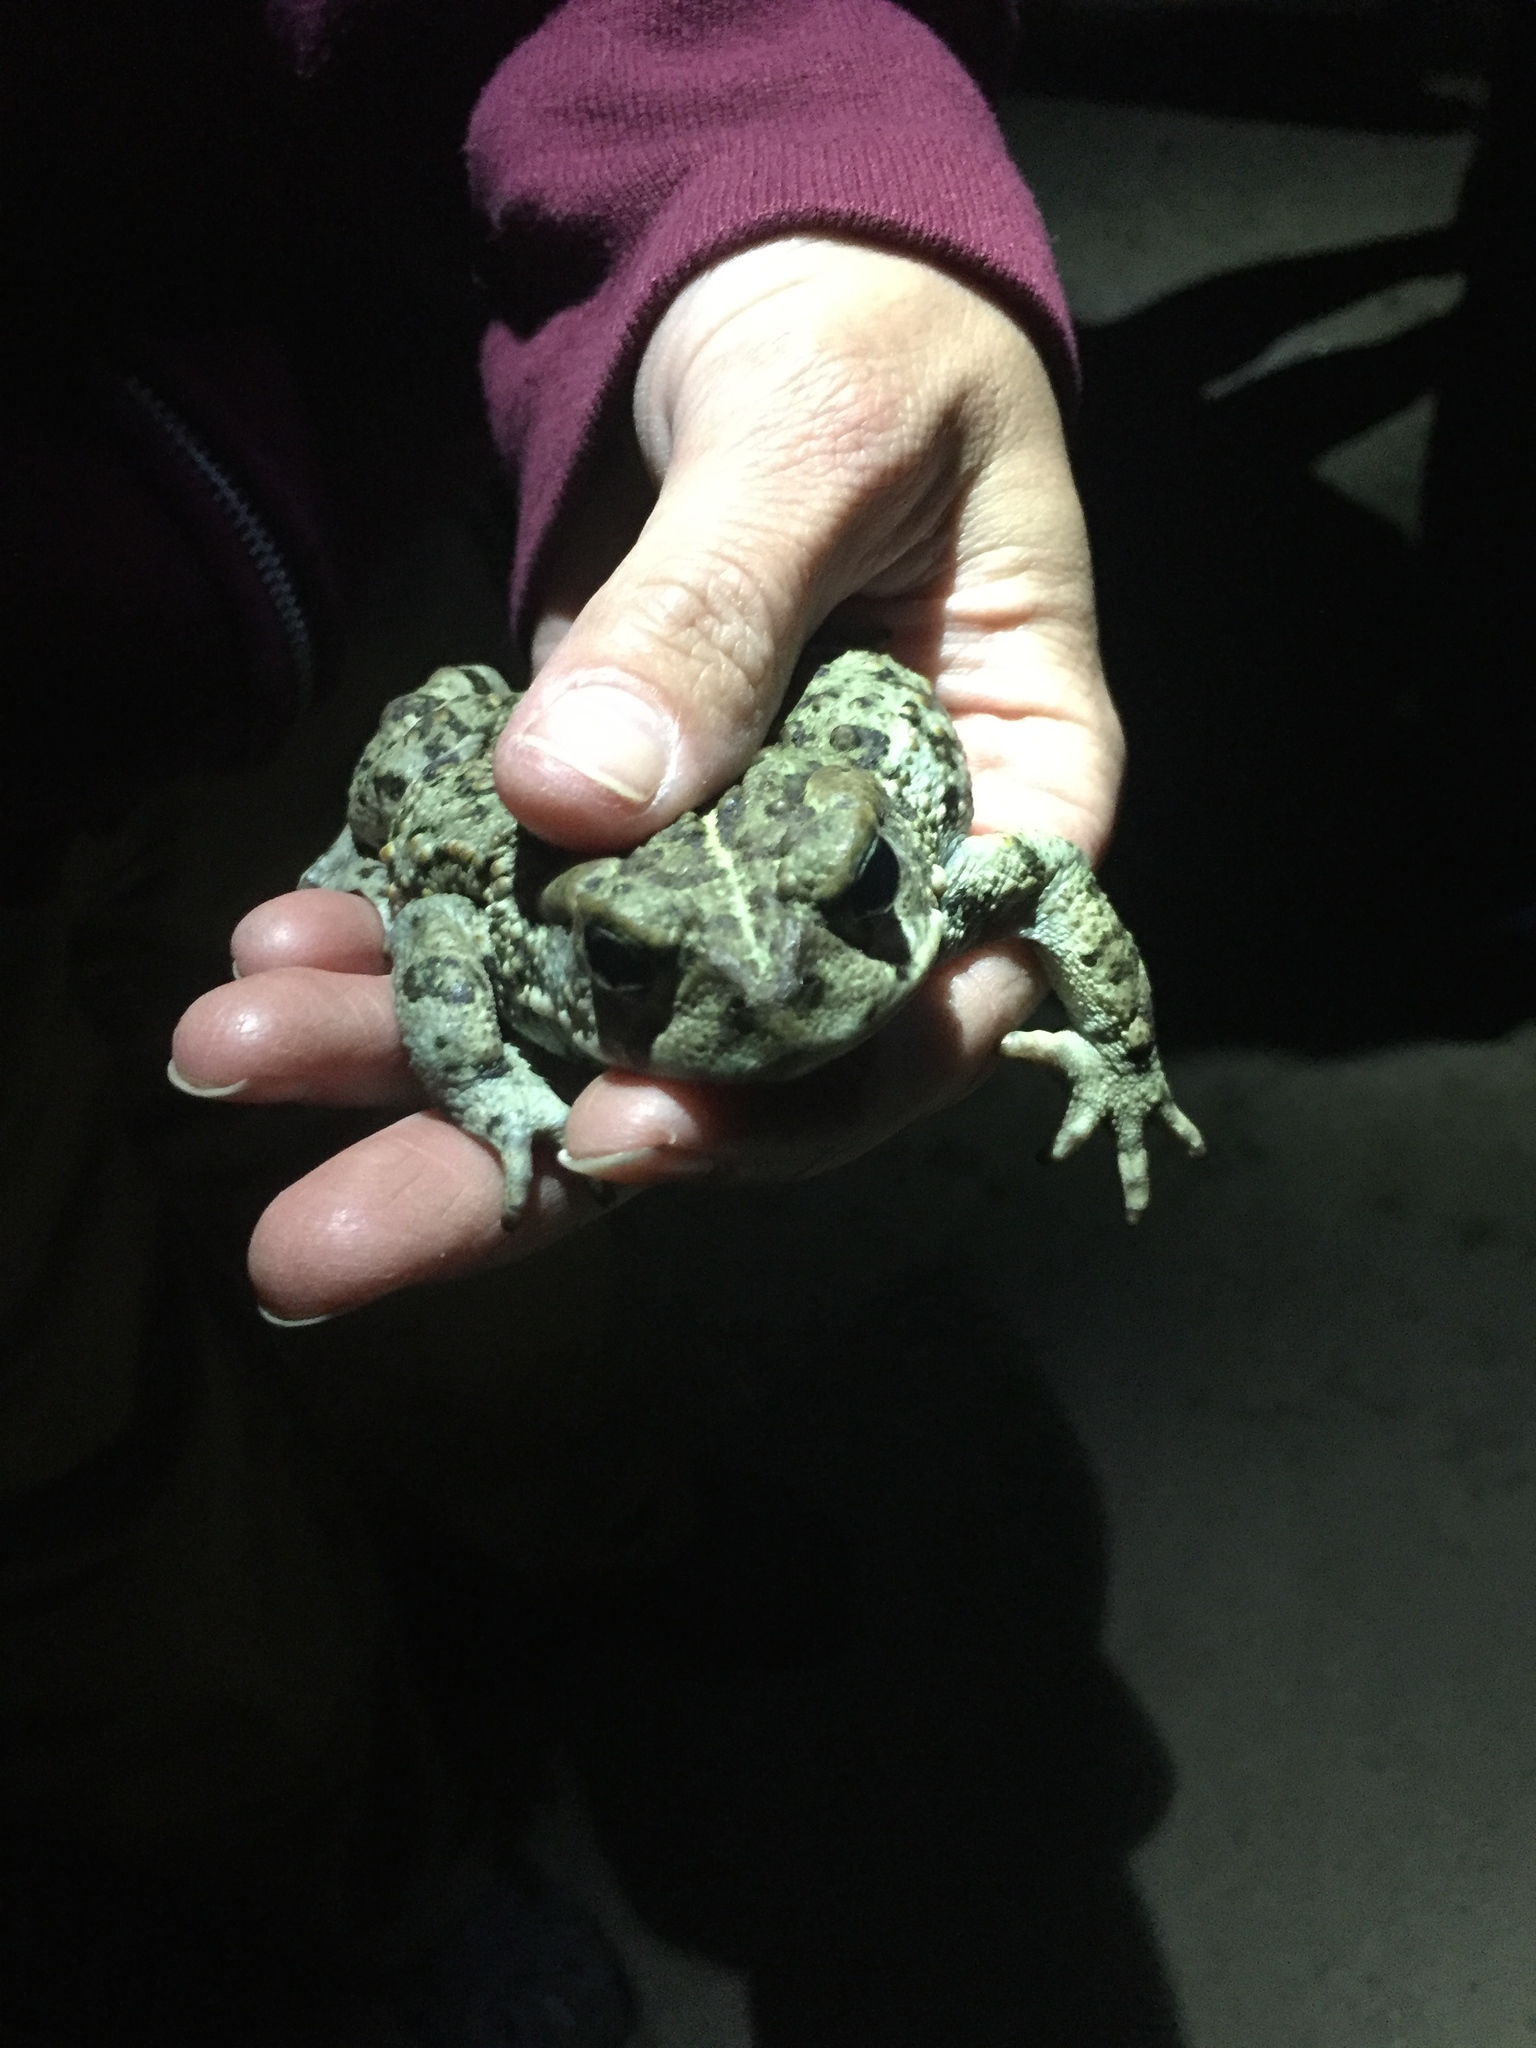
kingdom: Animalia
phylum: Chordata
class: Amphibia
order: Anura
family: Bufonidae
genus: Anaxyrus
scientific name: Anaxyrus boreas
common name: Western toad
